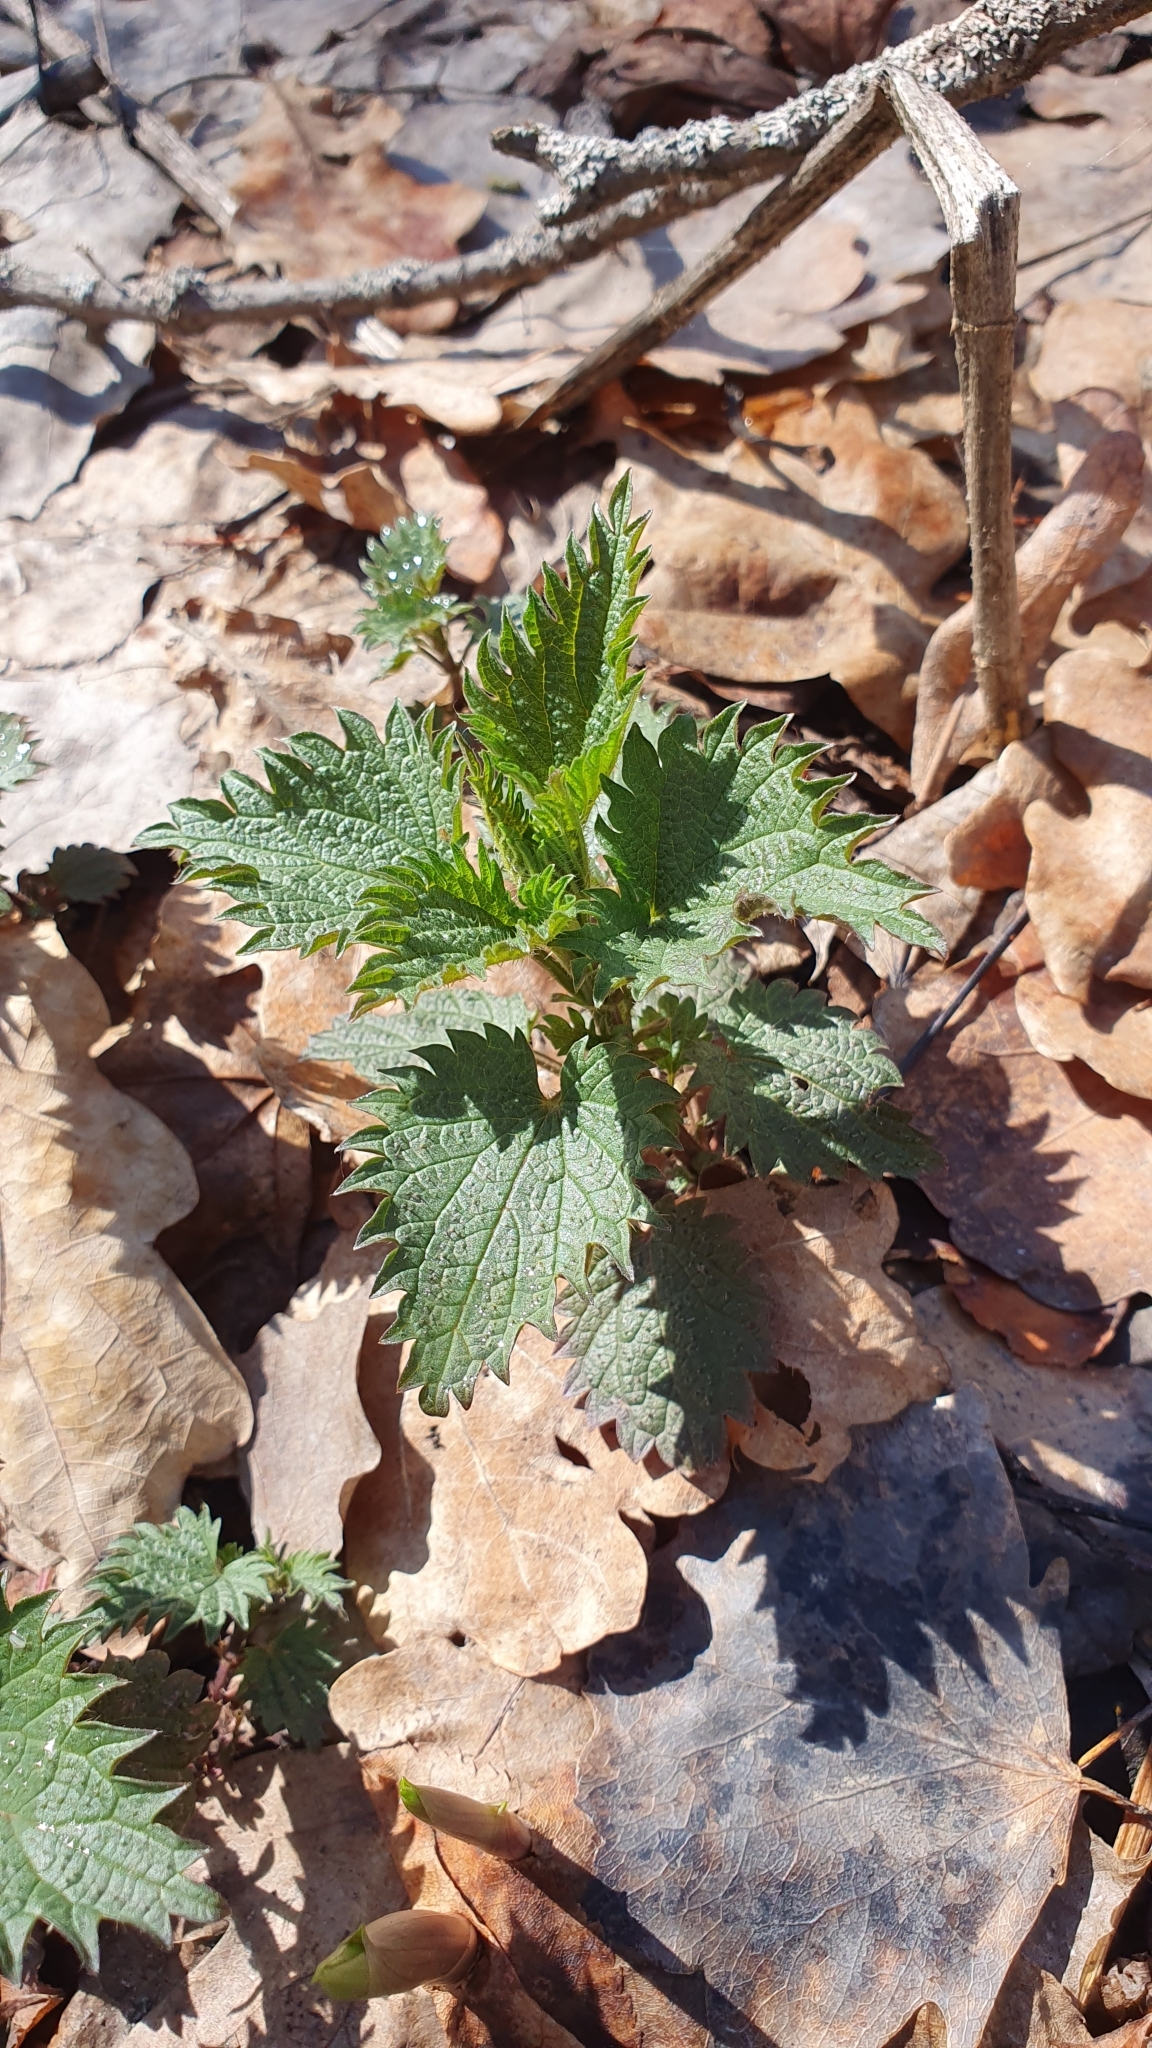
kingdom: Plantae
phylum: Tracheophyta
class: Magnoliopsida
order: Rosales
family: Urticaceae
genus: Urtica
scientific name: Urtica dioica
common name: Common nettle
